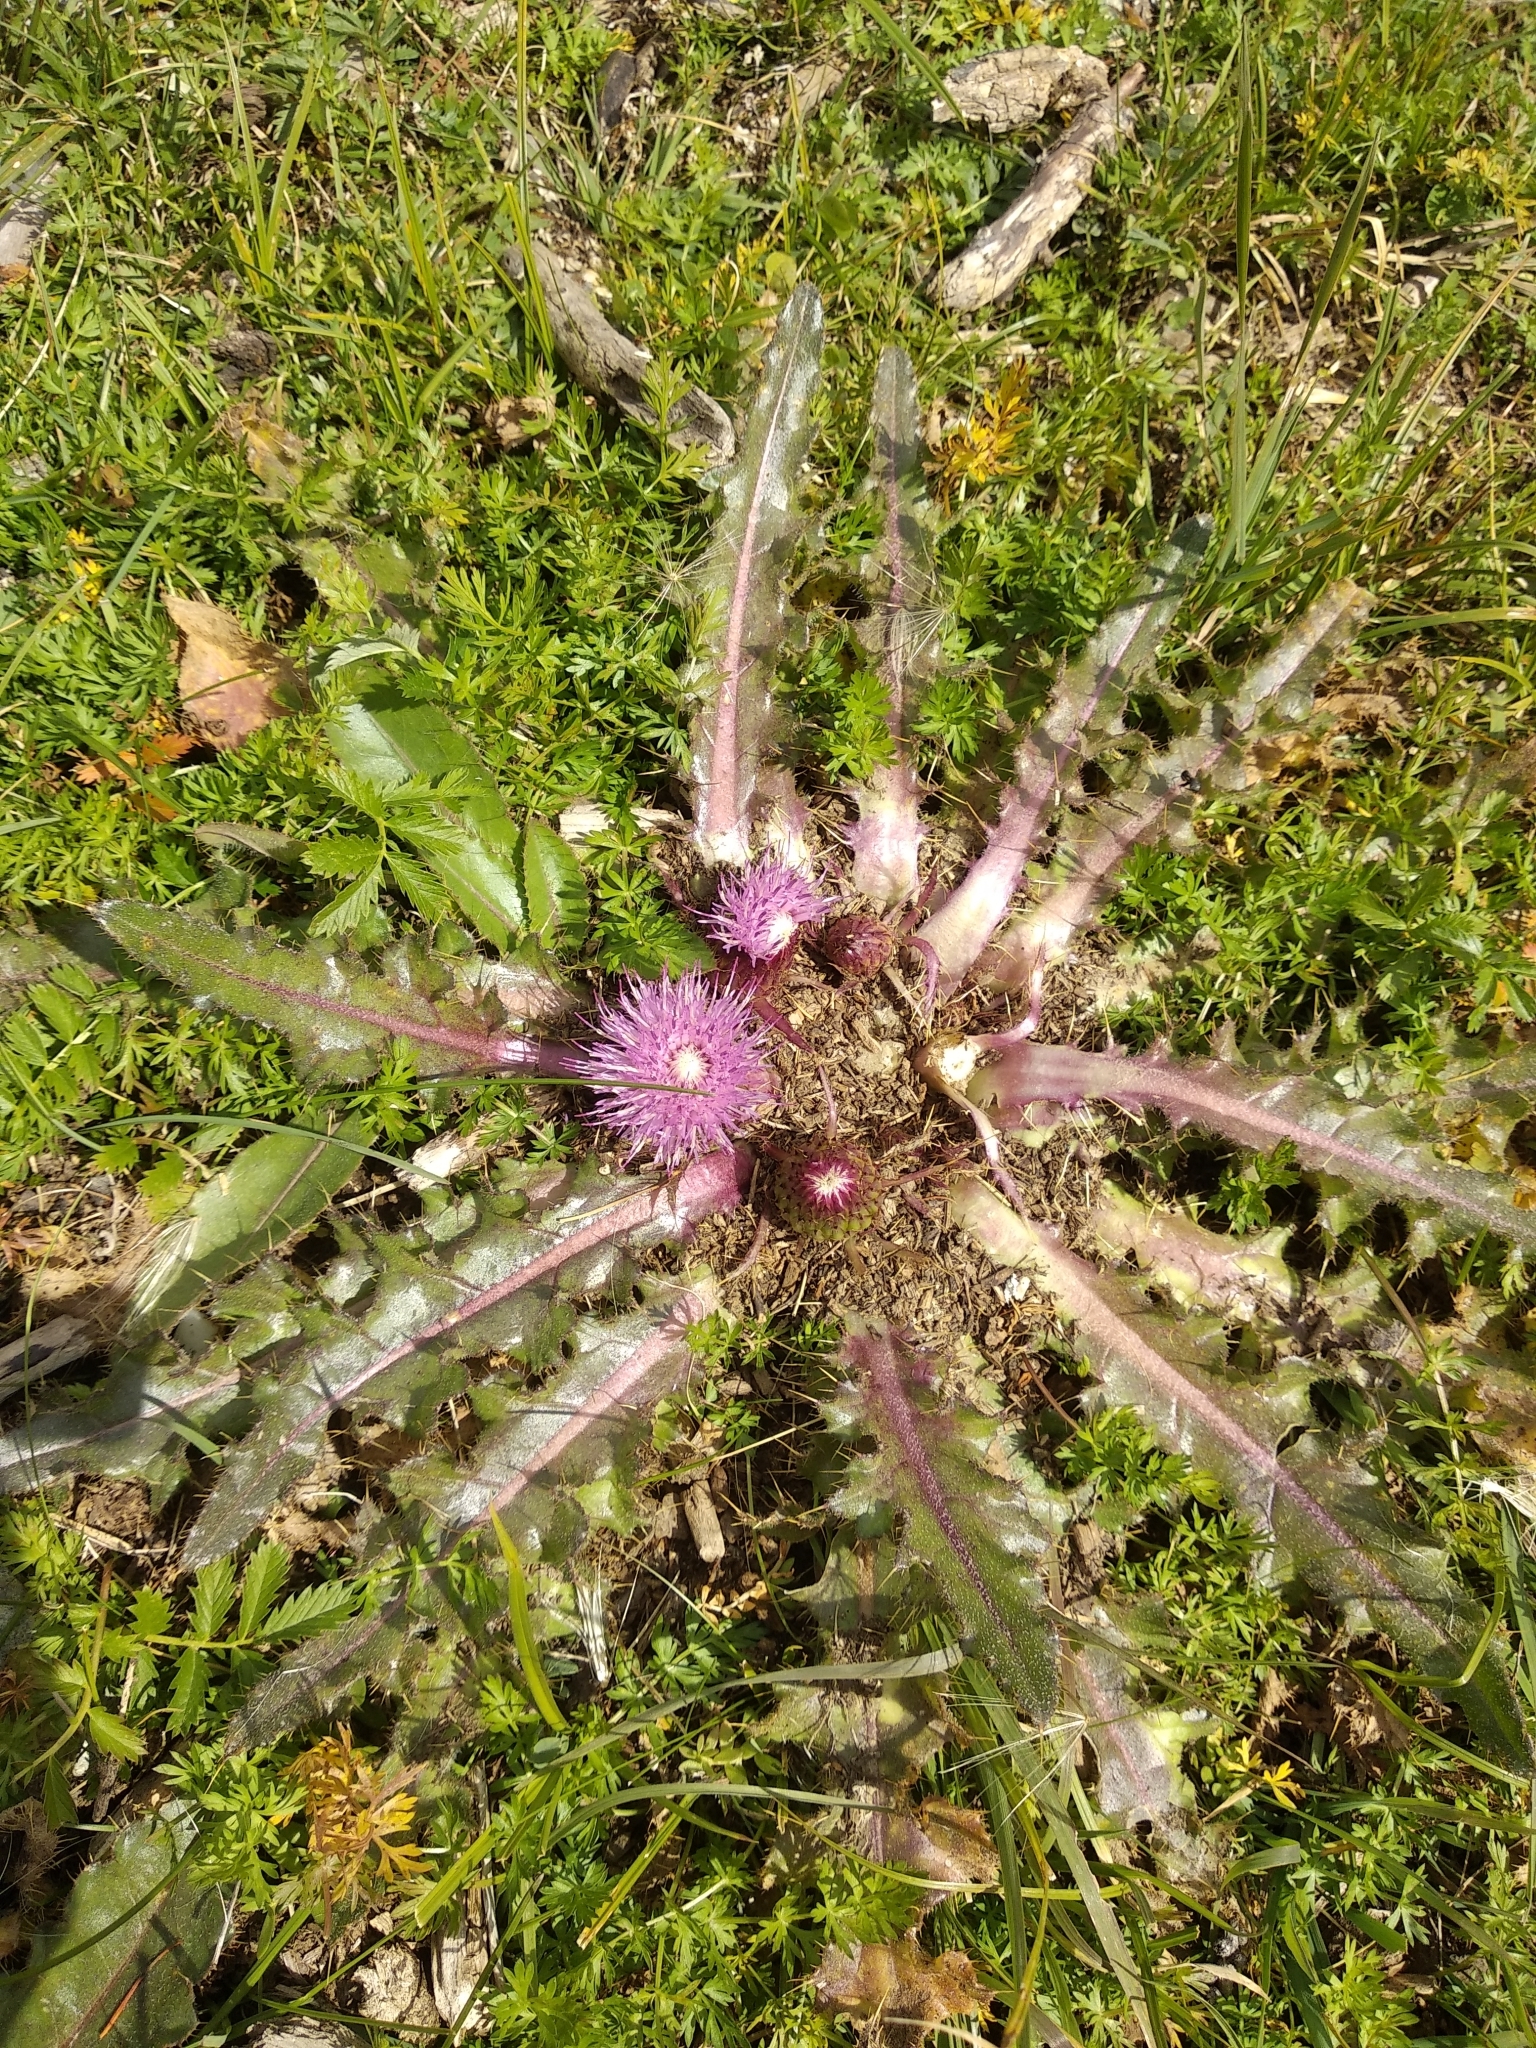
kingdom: Plantae
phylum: Tracheophyta
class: Magnoliopsida
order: Asterales
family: Asteraceae
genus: Cirsium
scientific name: Cirsium esculentum
